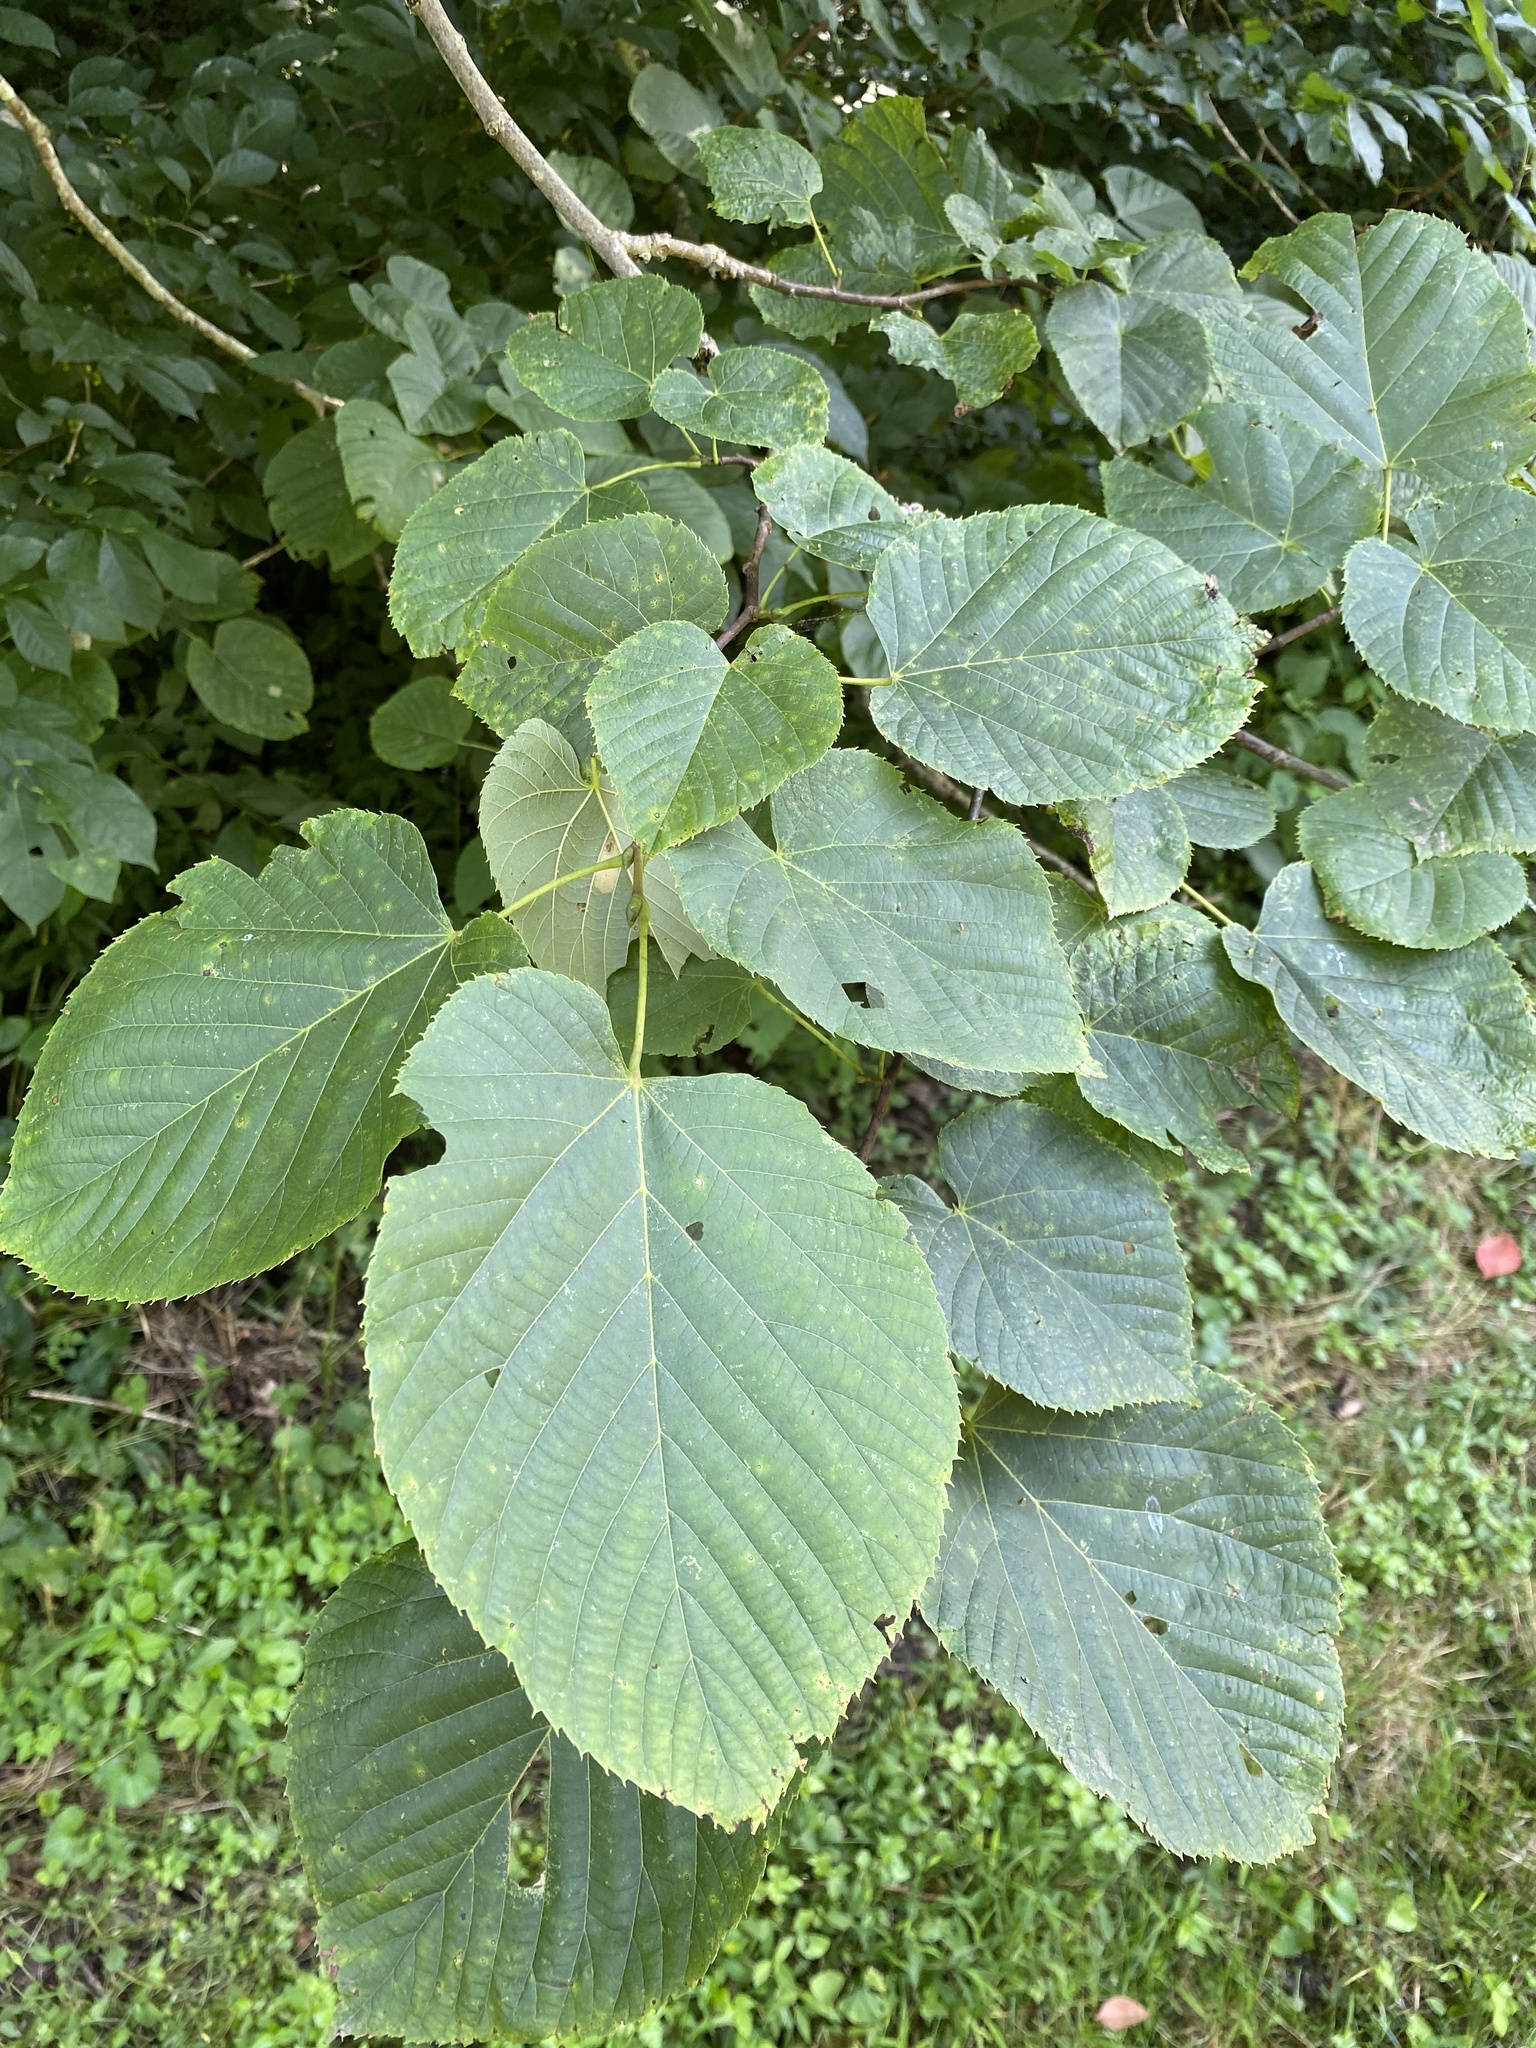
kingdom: Plantae
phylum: Tracheophyta
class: Magnoliopsida
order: Malvales
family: Malvaceae
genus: Tilia
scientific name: Tilia americana
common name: Basswood
